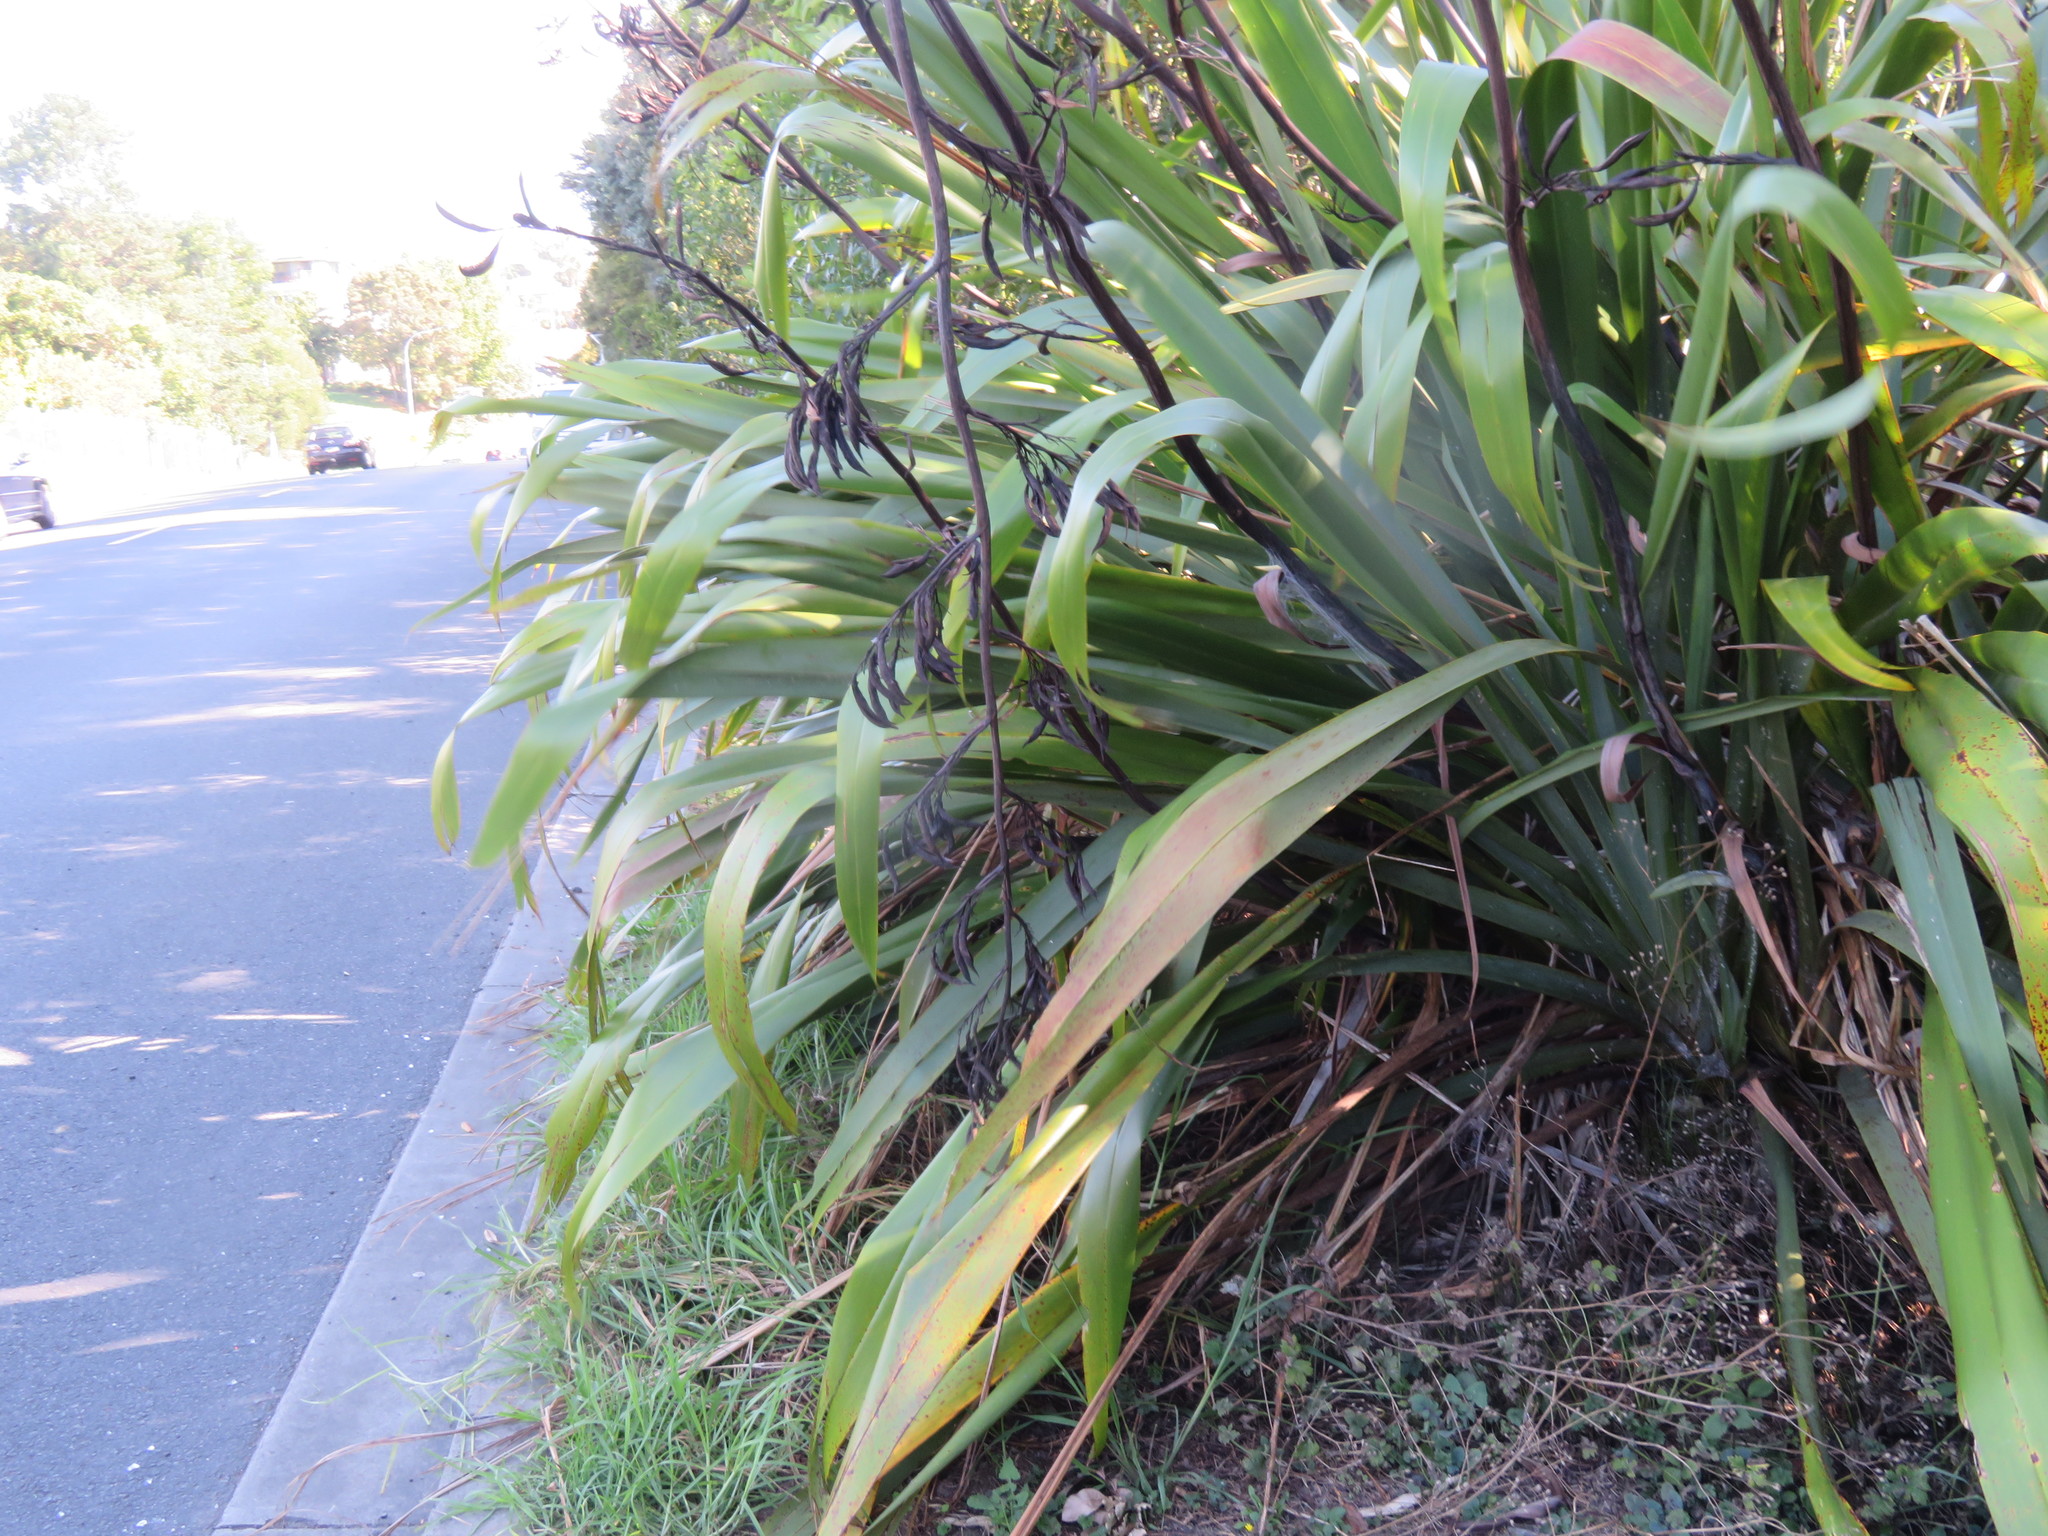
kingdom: Plantae
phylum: Tracheophyta
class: Liliopsida
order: Poales
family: Poaceae
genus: Cenchrus
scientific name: Cenchrus clandestinus
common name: Kikuyugrass
